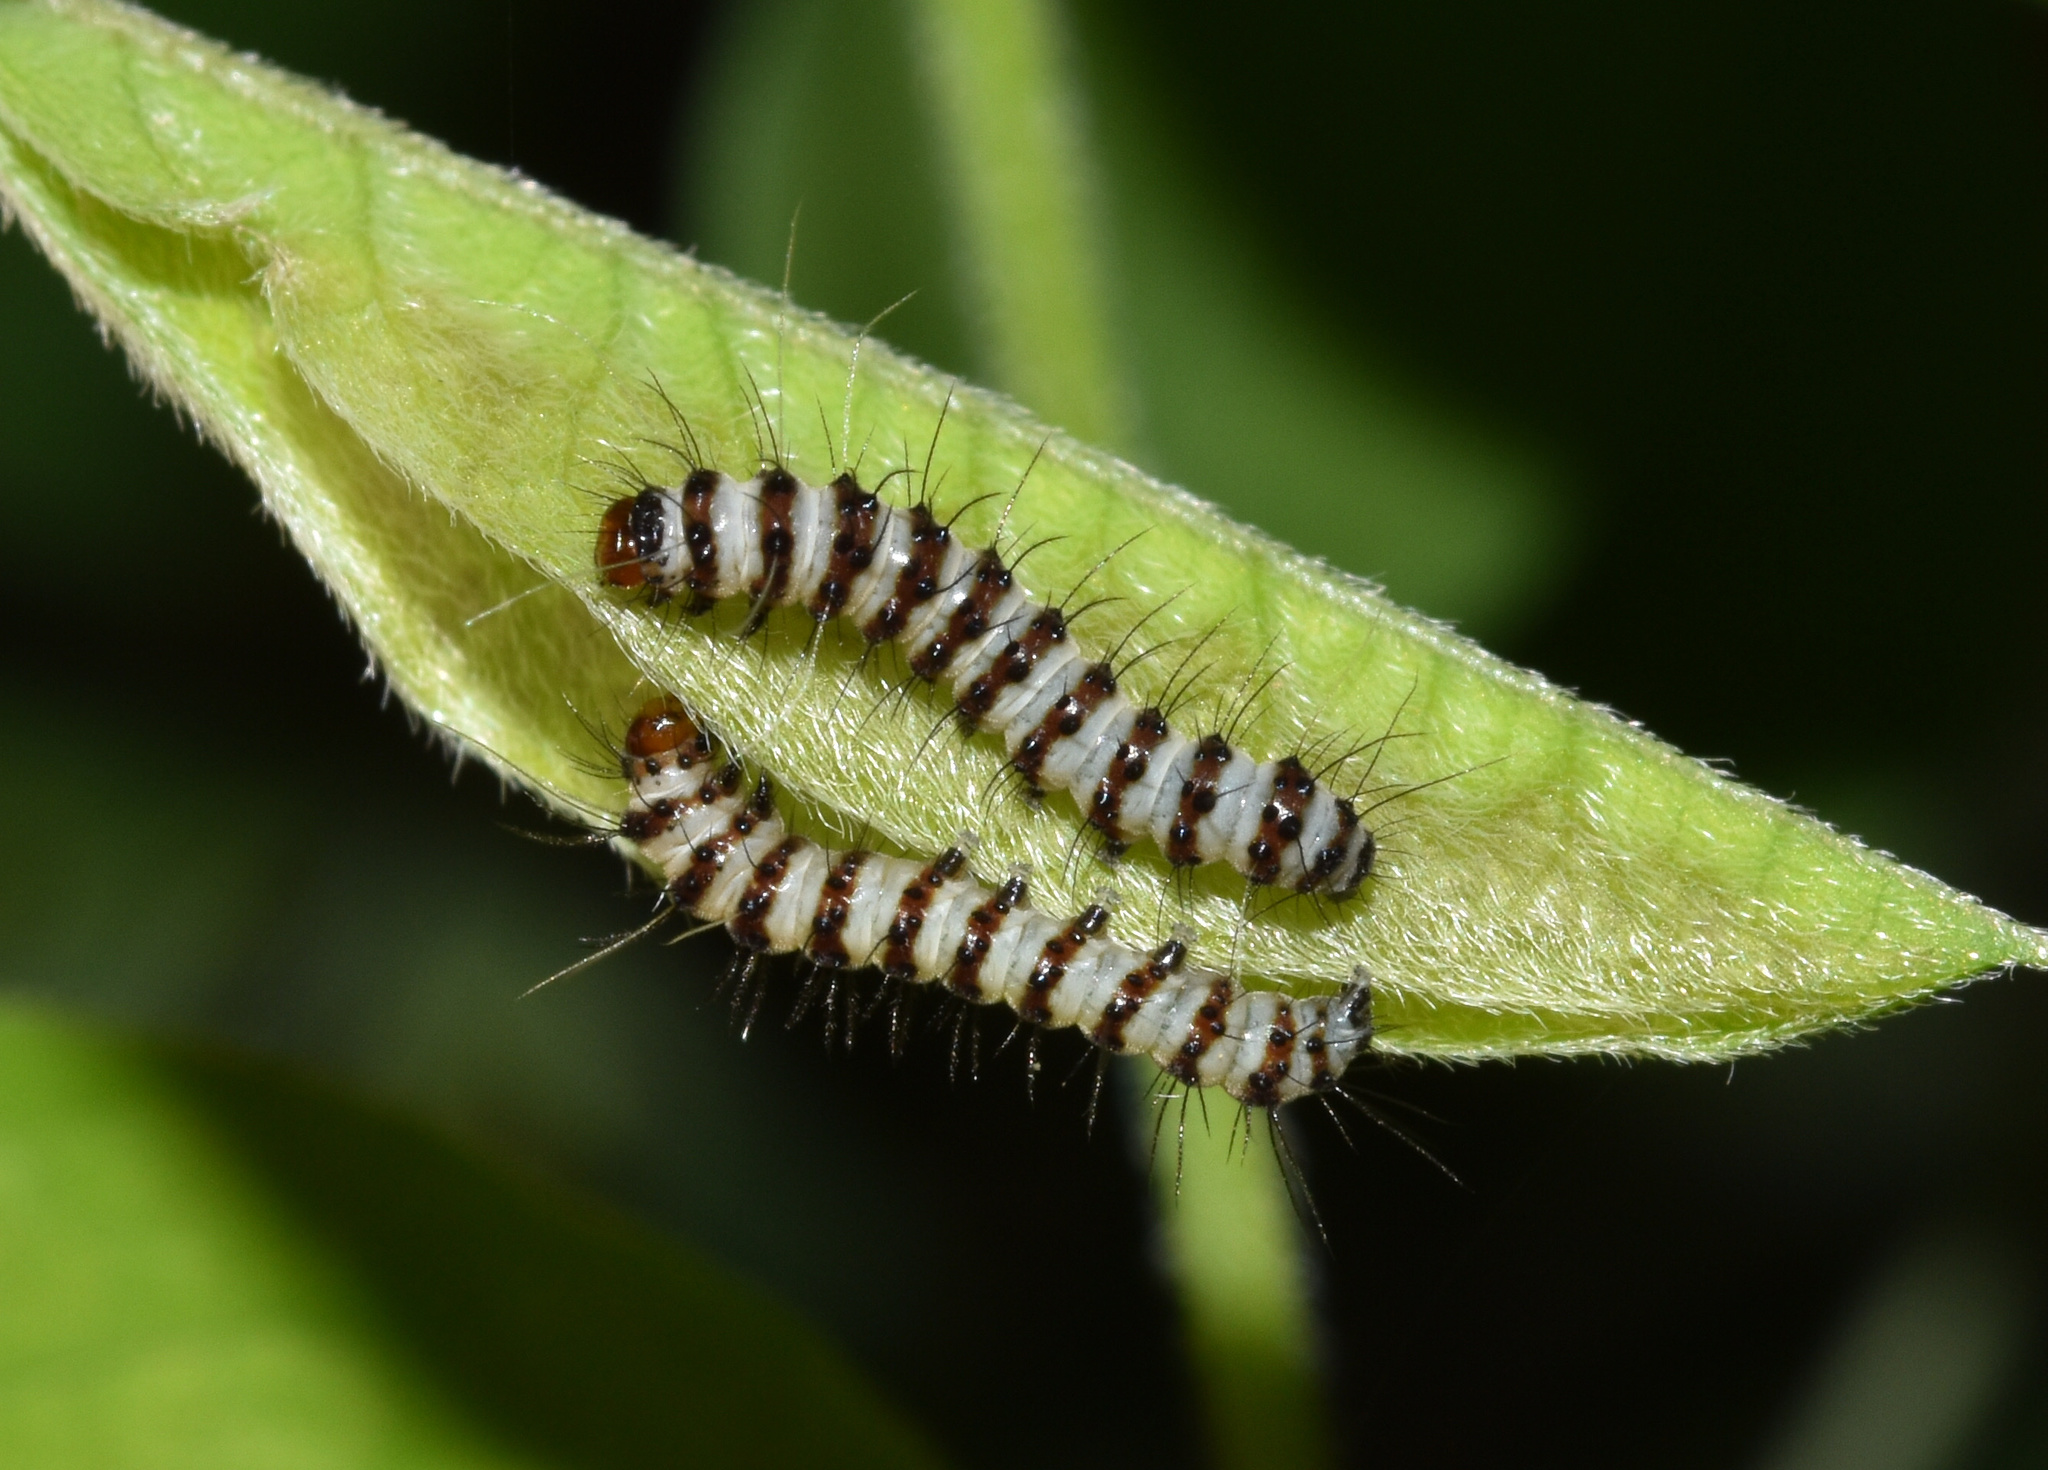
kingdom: Animalia
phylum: Arthropoda
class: Insecta
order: Lepidoptera
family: Erebidae
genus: Amphicallia
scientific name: Amphicallia bellatrix
